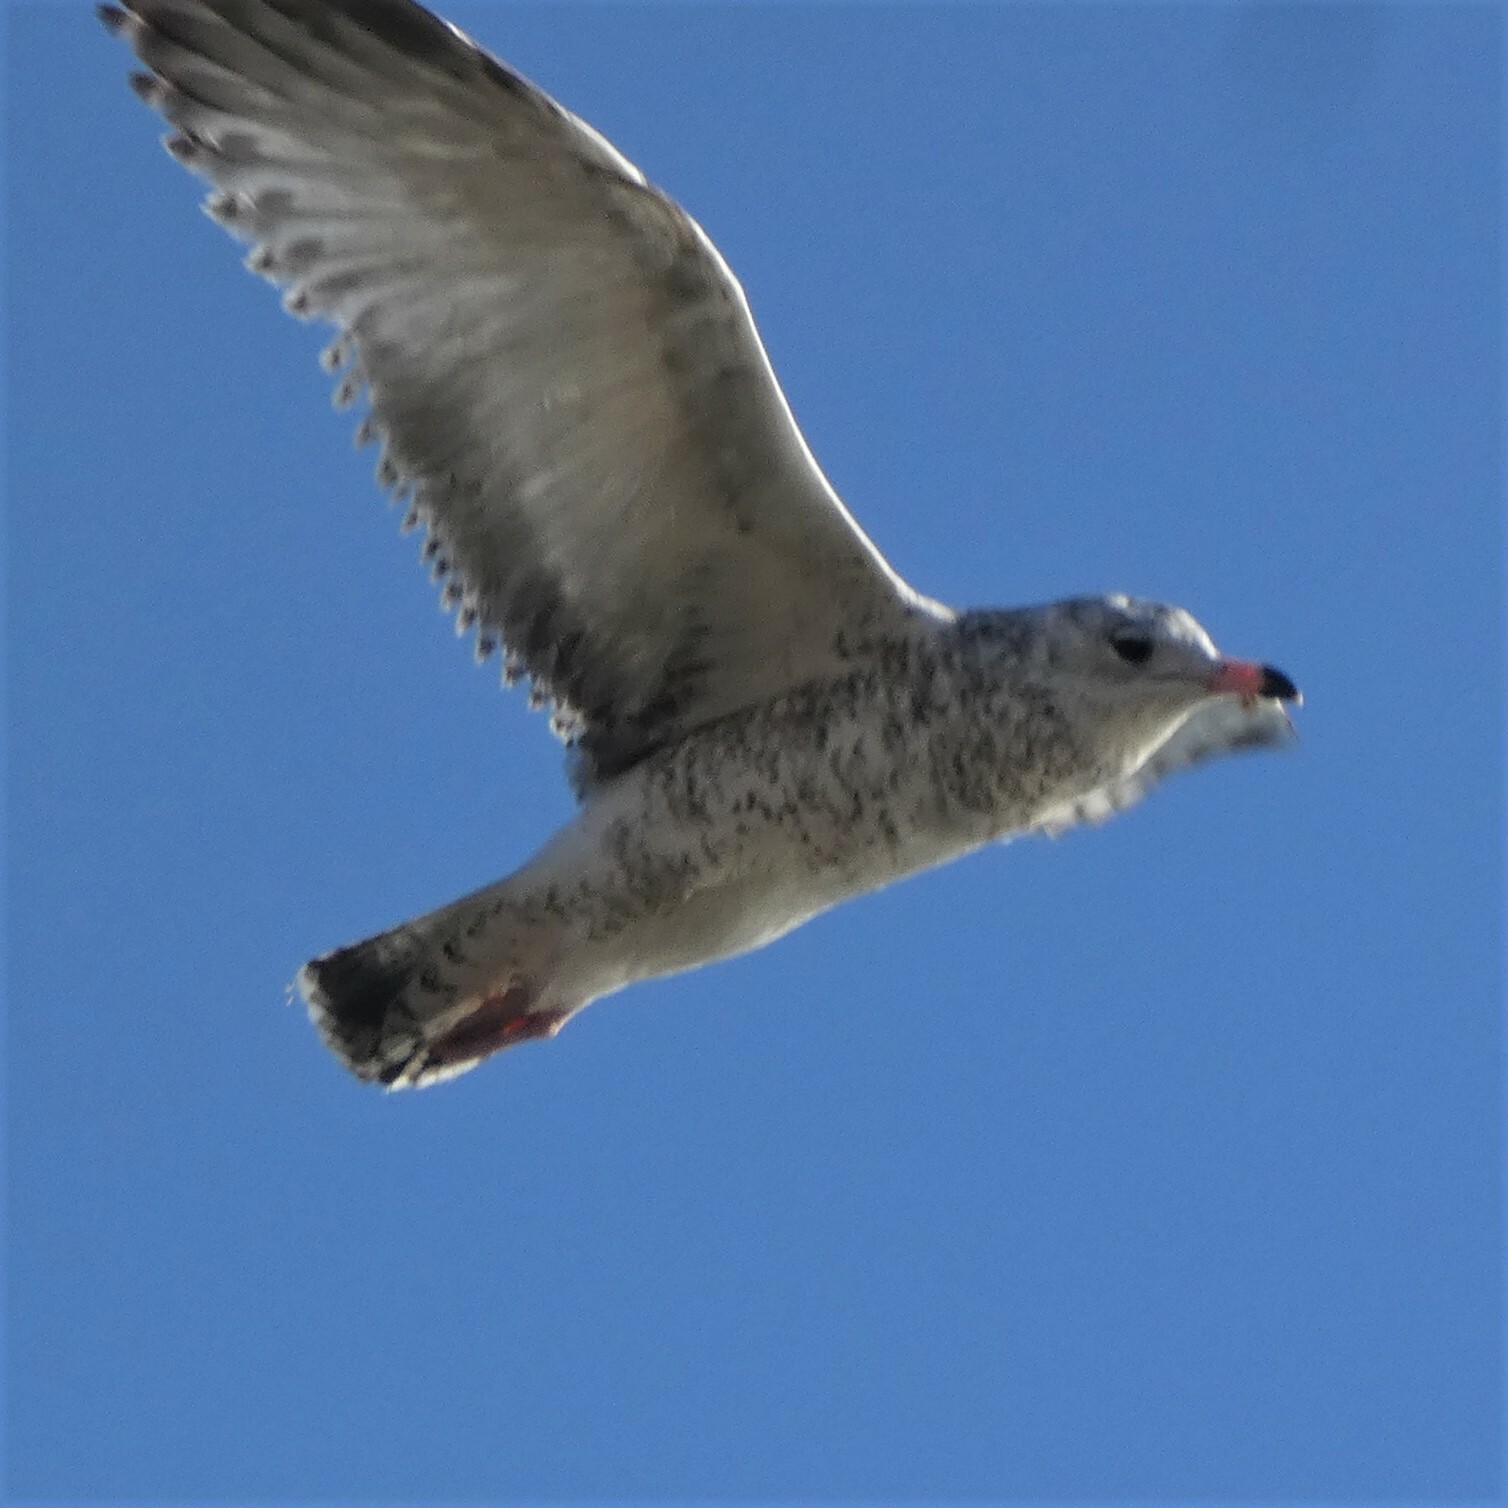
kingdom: Animalia
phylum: Chordata
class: Aves
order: Charadriiformes
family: Laridae
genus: Larus
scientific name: Larus delawarensis
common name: Ring-billed gull
